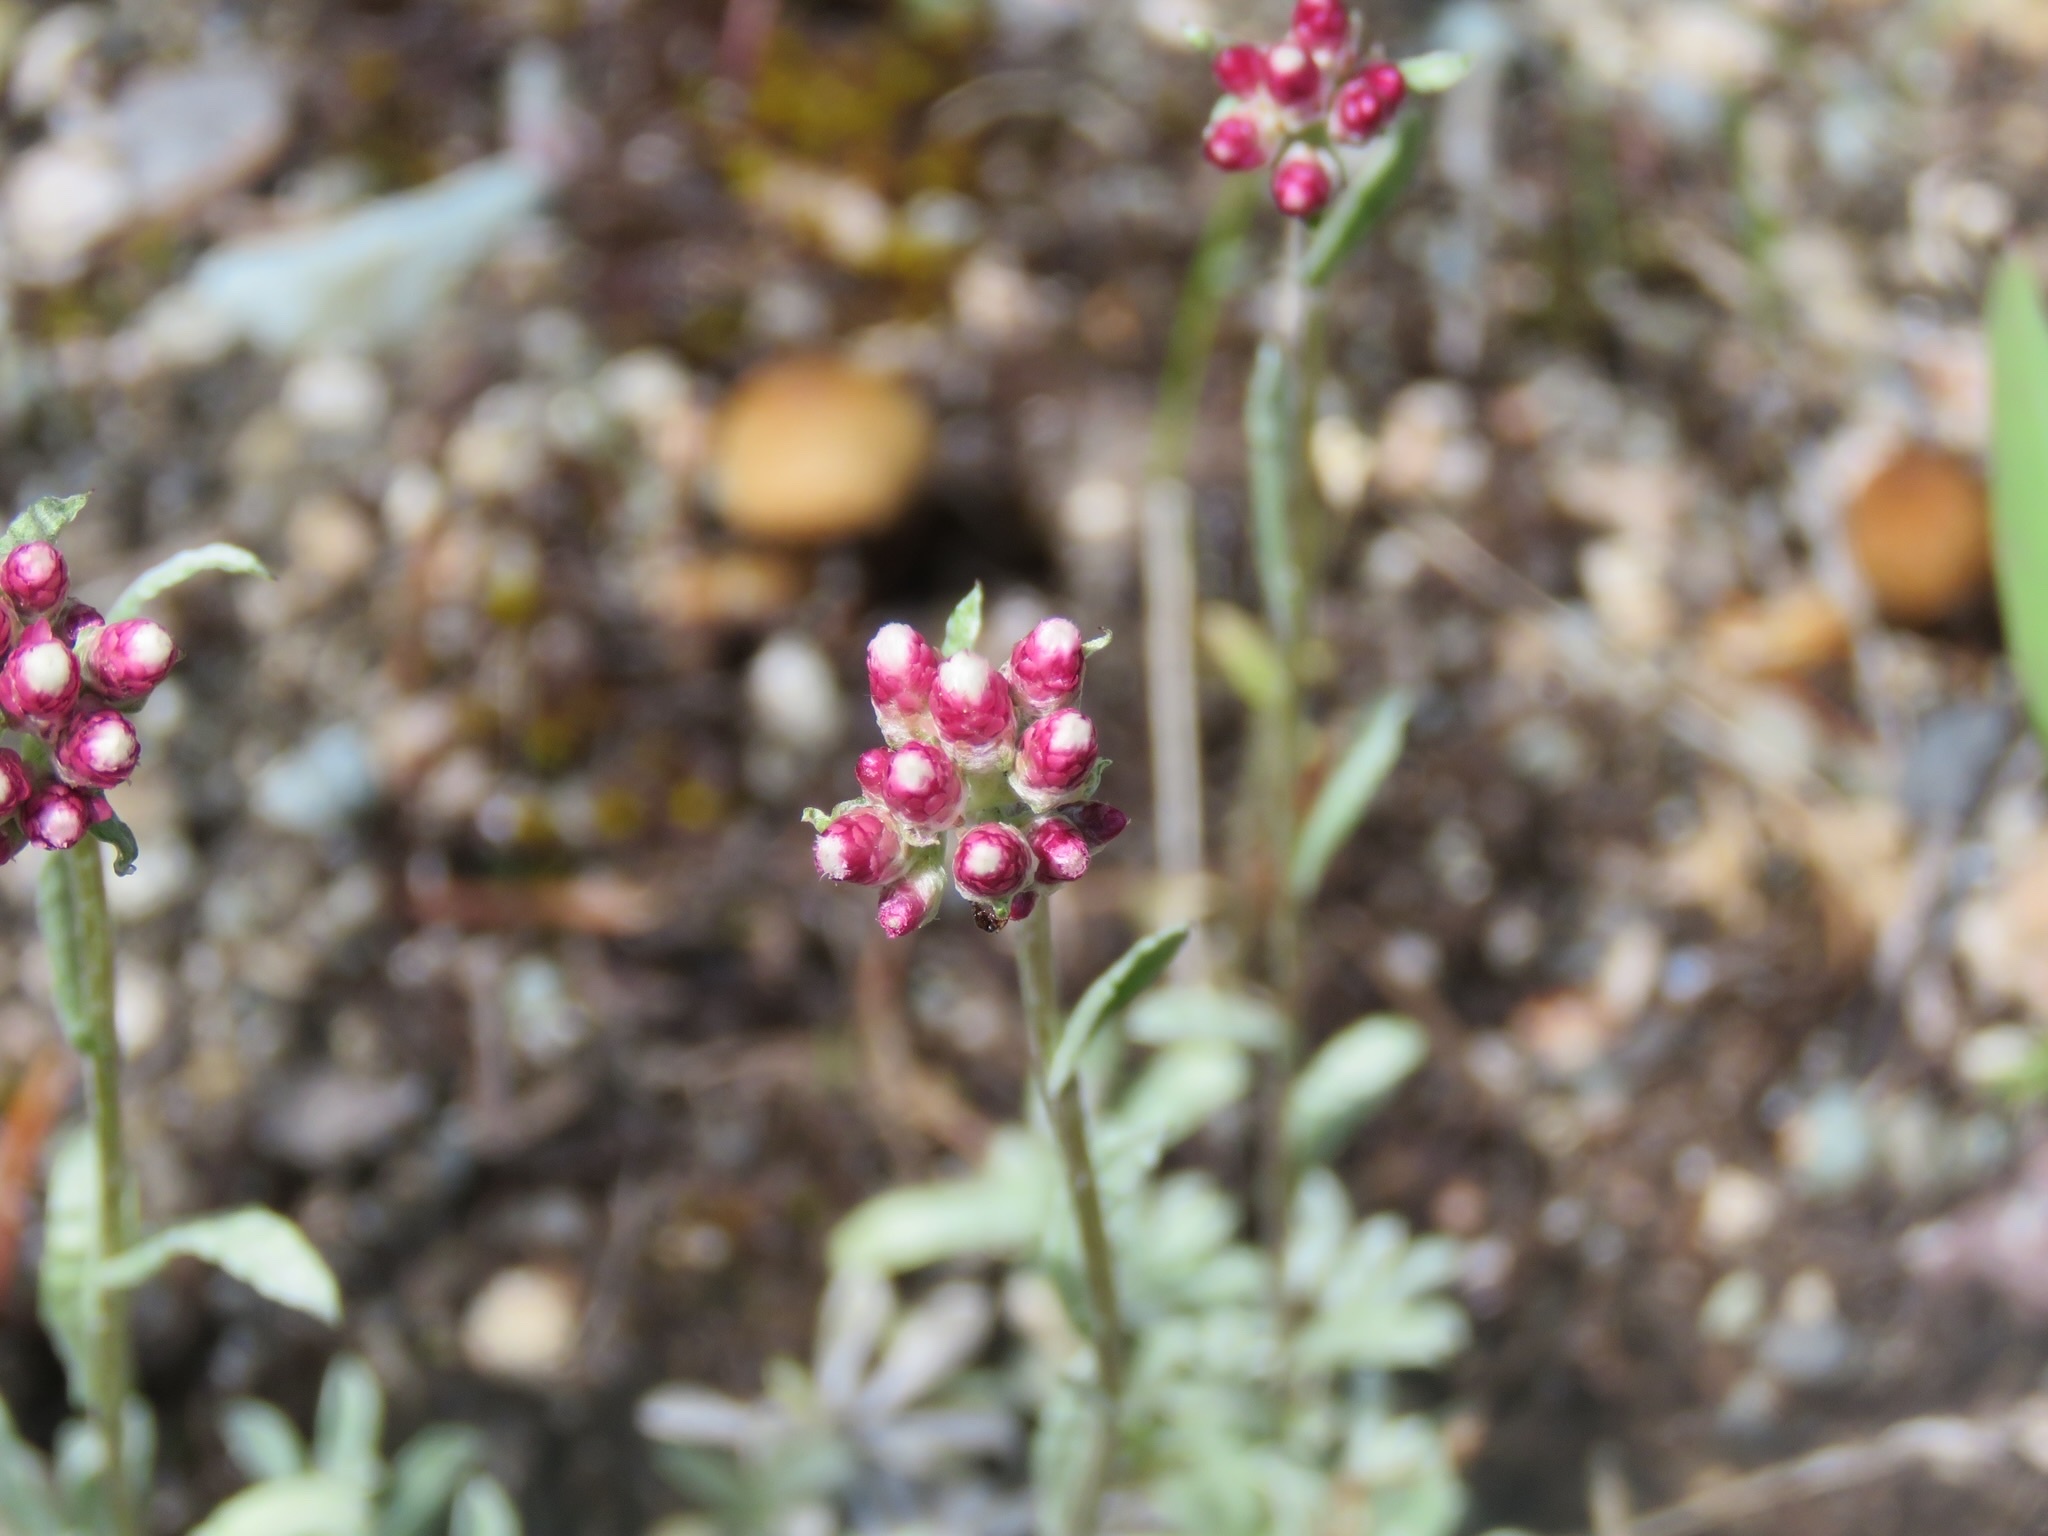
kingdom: Plantae
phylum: Tracheophyta
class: Magnoliopsida
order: Asterales
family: Asteraceae
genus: Antennaria
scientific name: Antennaria rosea
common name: Rosy pussytoes
